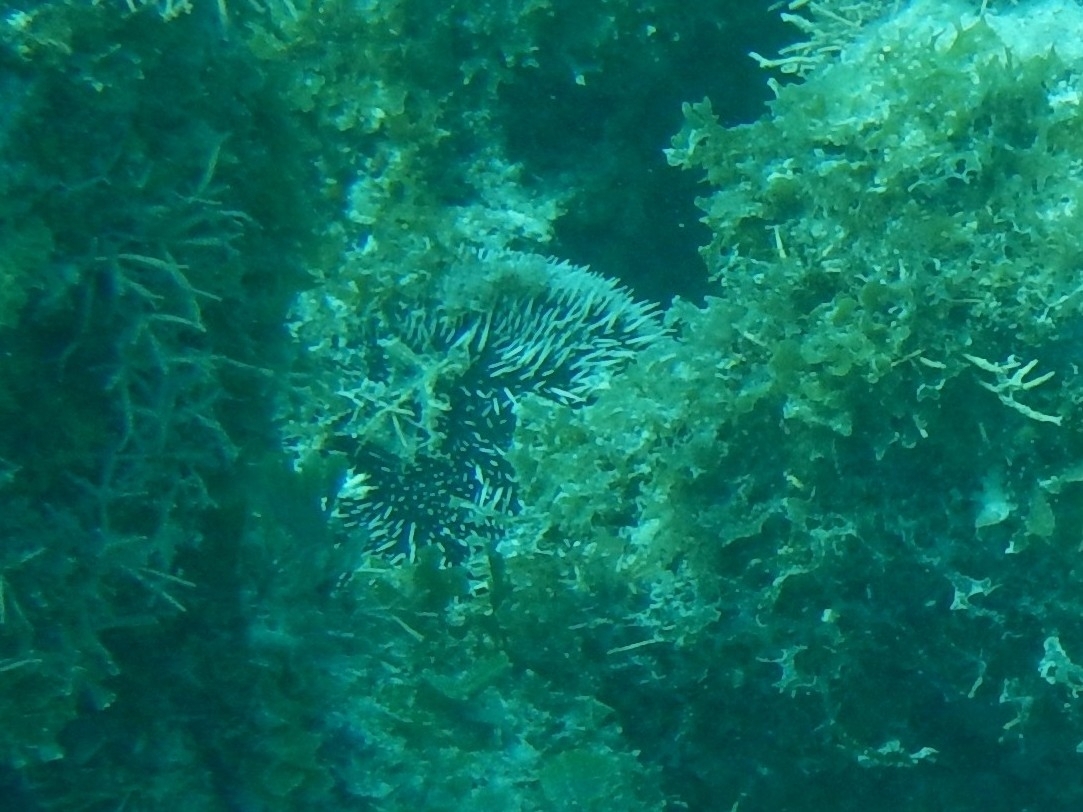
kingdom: Animalia
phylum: Echinodermata
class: Echinoidea
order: Camarodonta
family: Toxopneustidae
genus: Tripneustes
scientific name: Tripneustes ventricosus
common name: West indian sea egg
